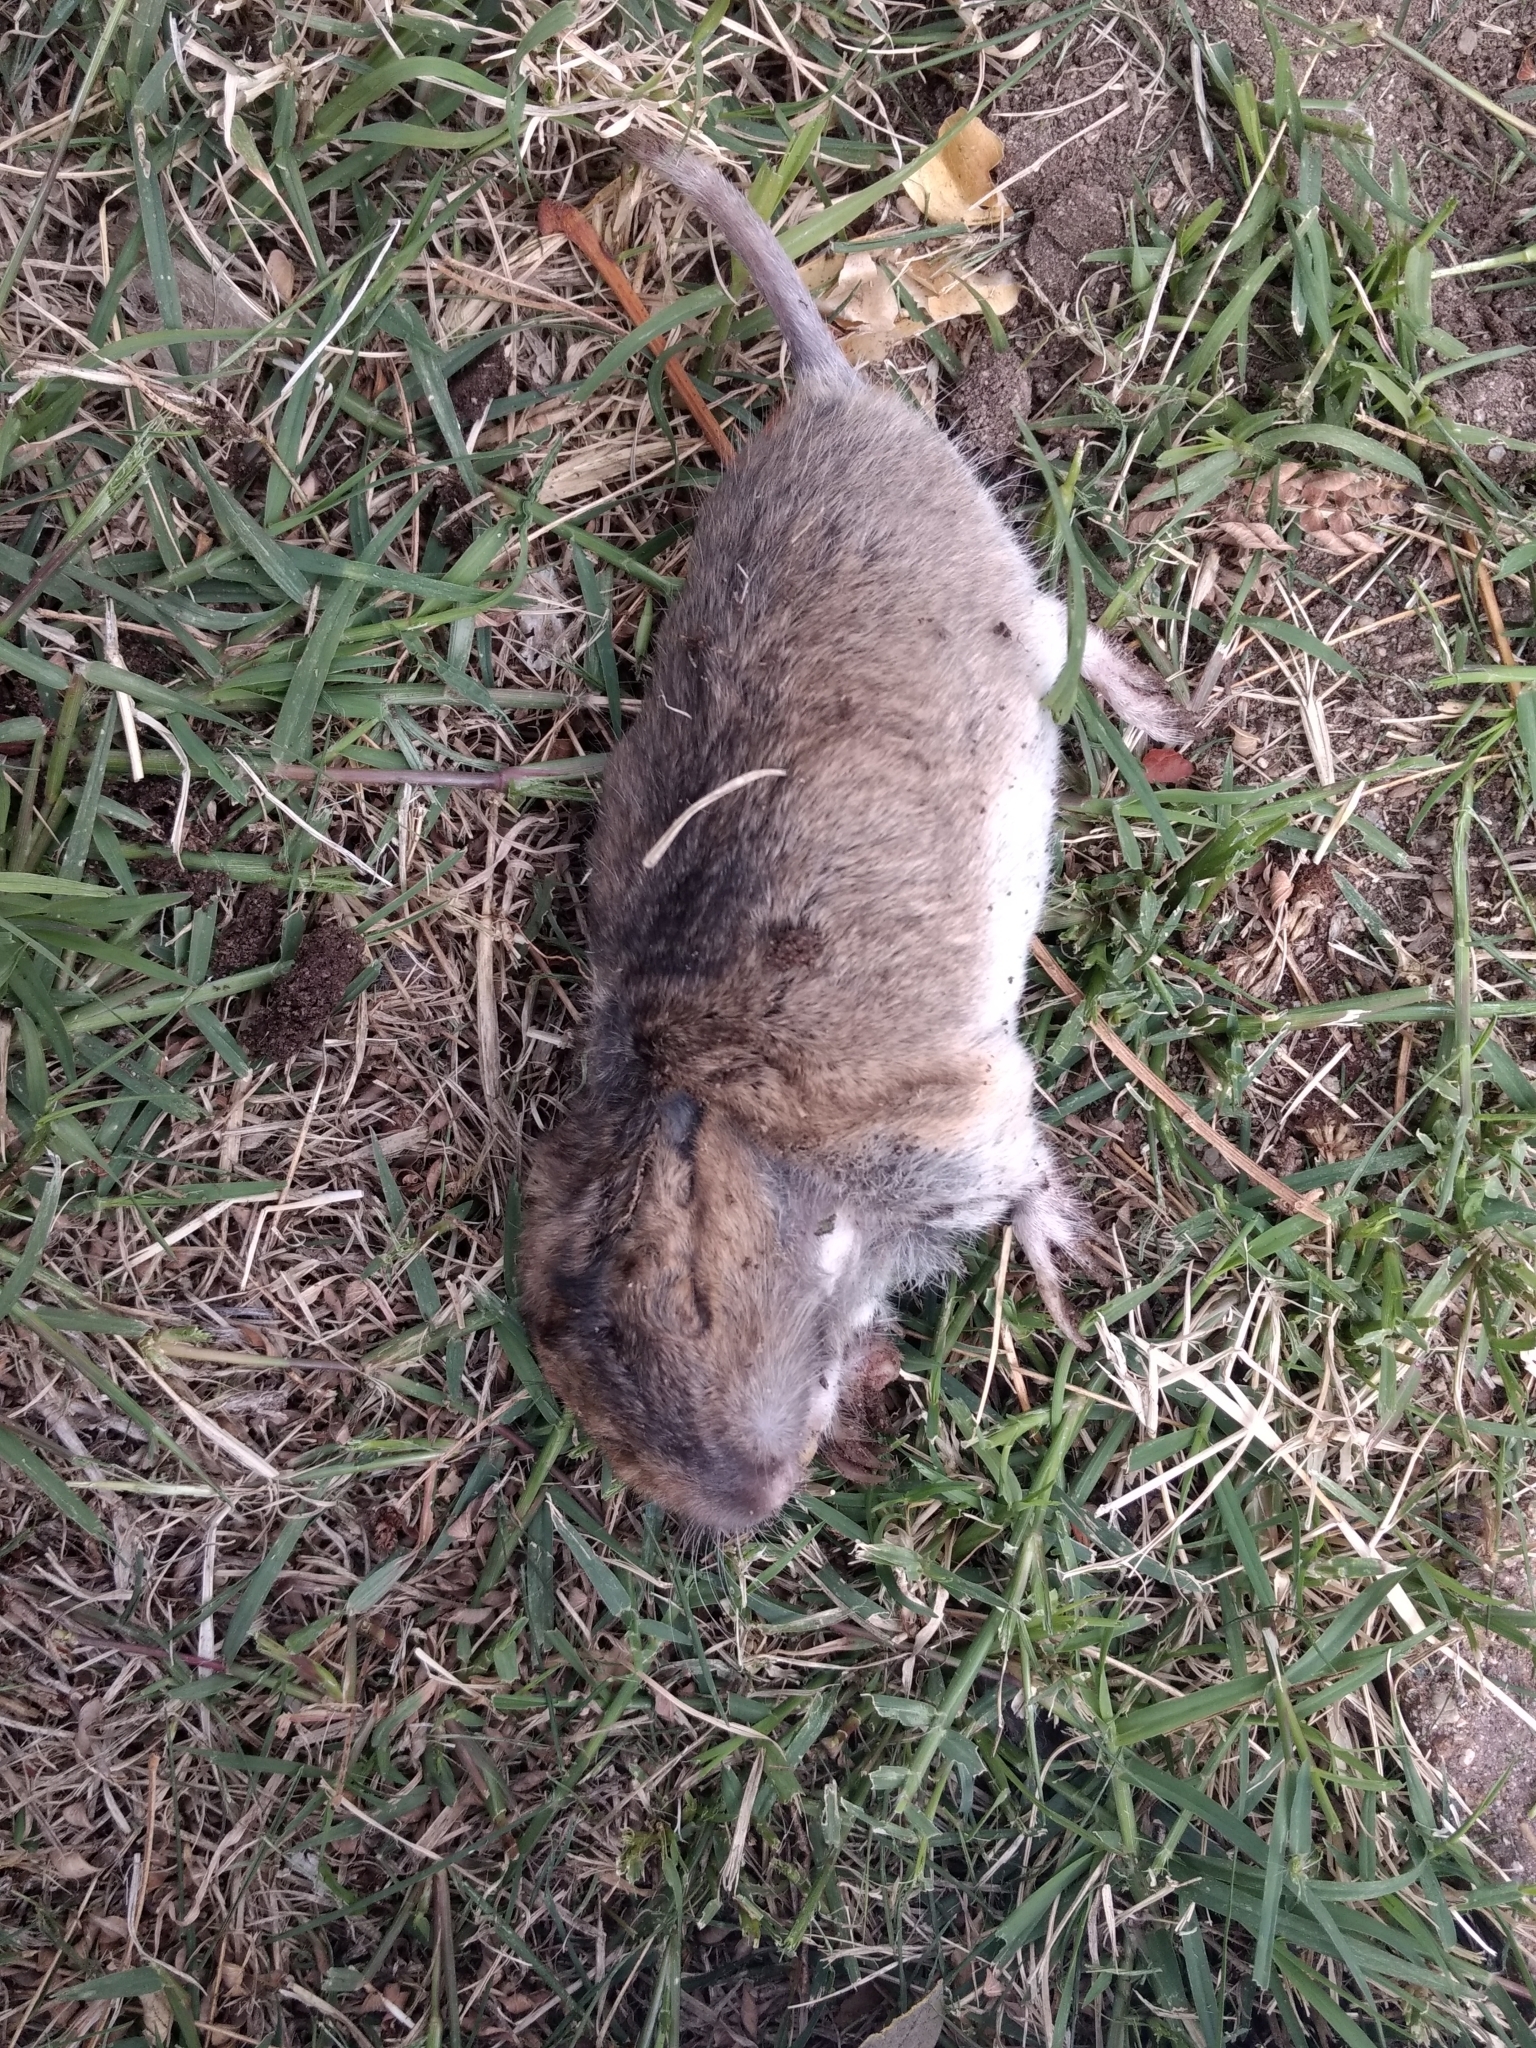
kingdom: Animalia
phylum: Chordata
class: Mammalia
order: Rodentia
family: Geomyidae
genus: Thomomys
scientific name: Thomomys bottae
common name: Botta's pocket gopher
